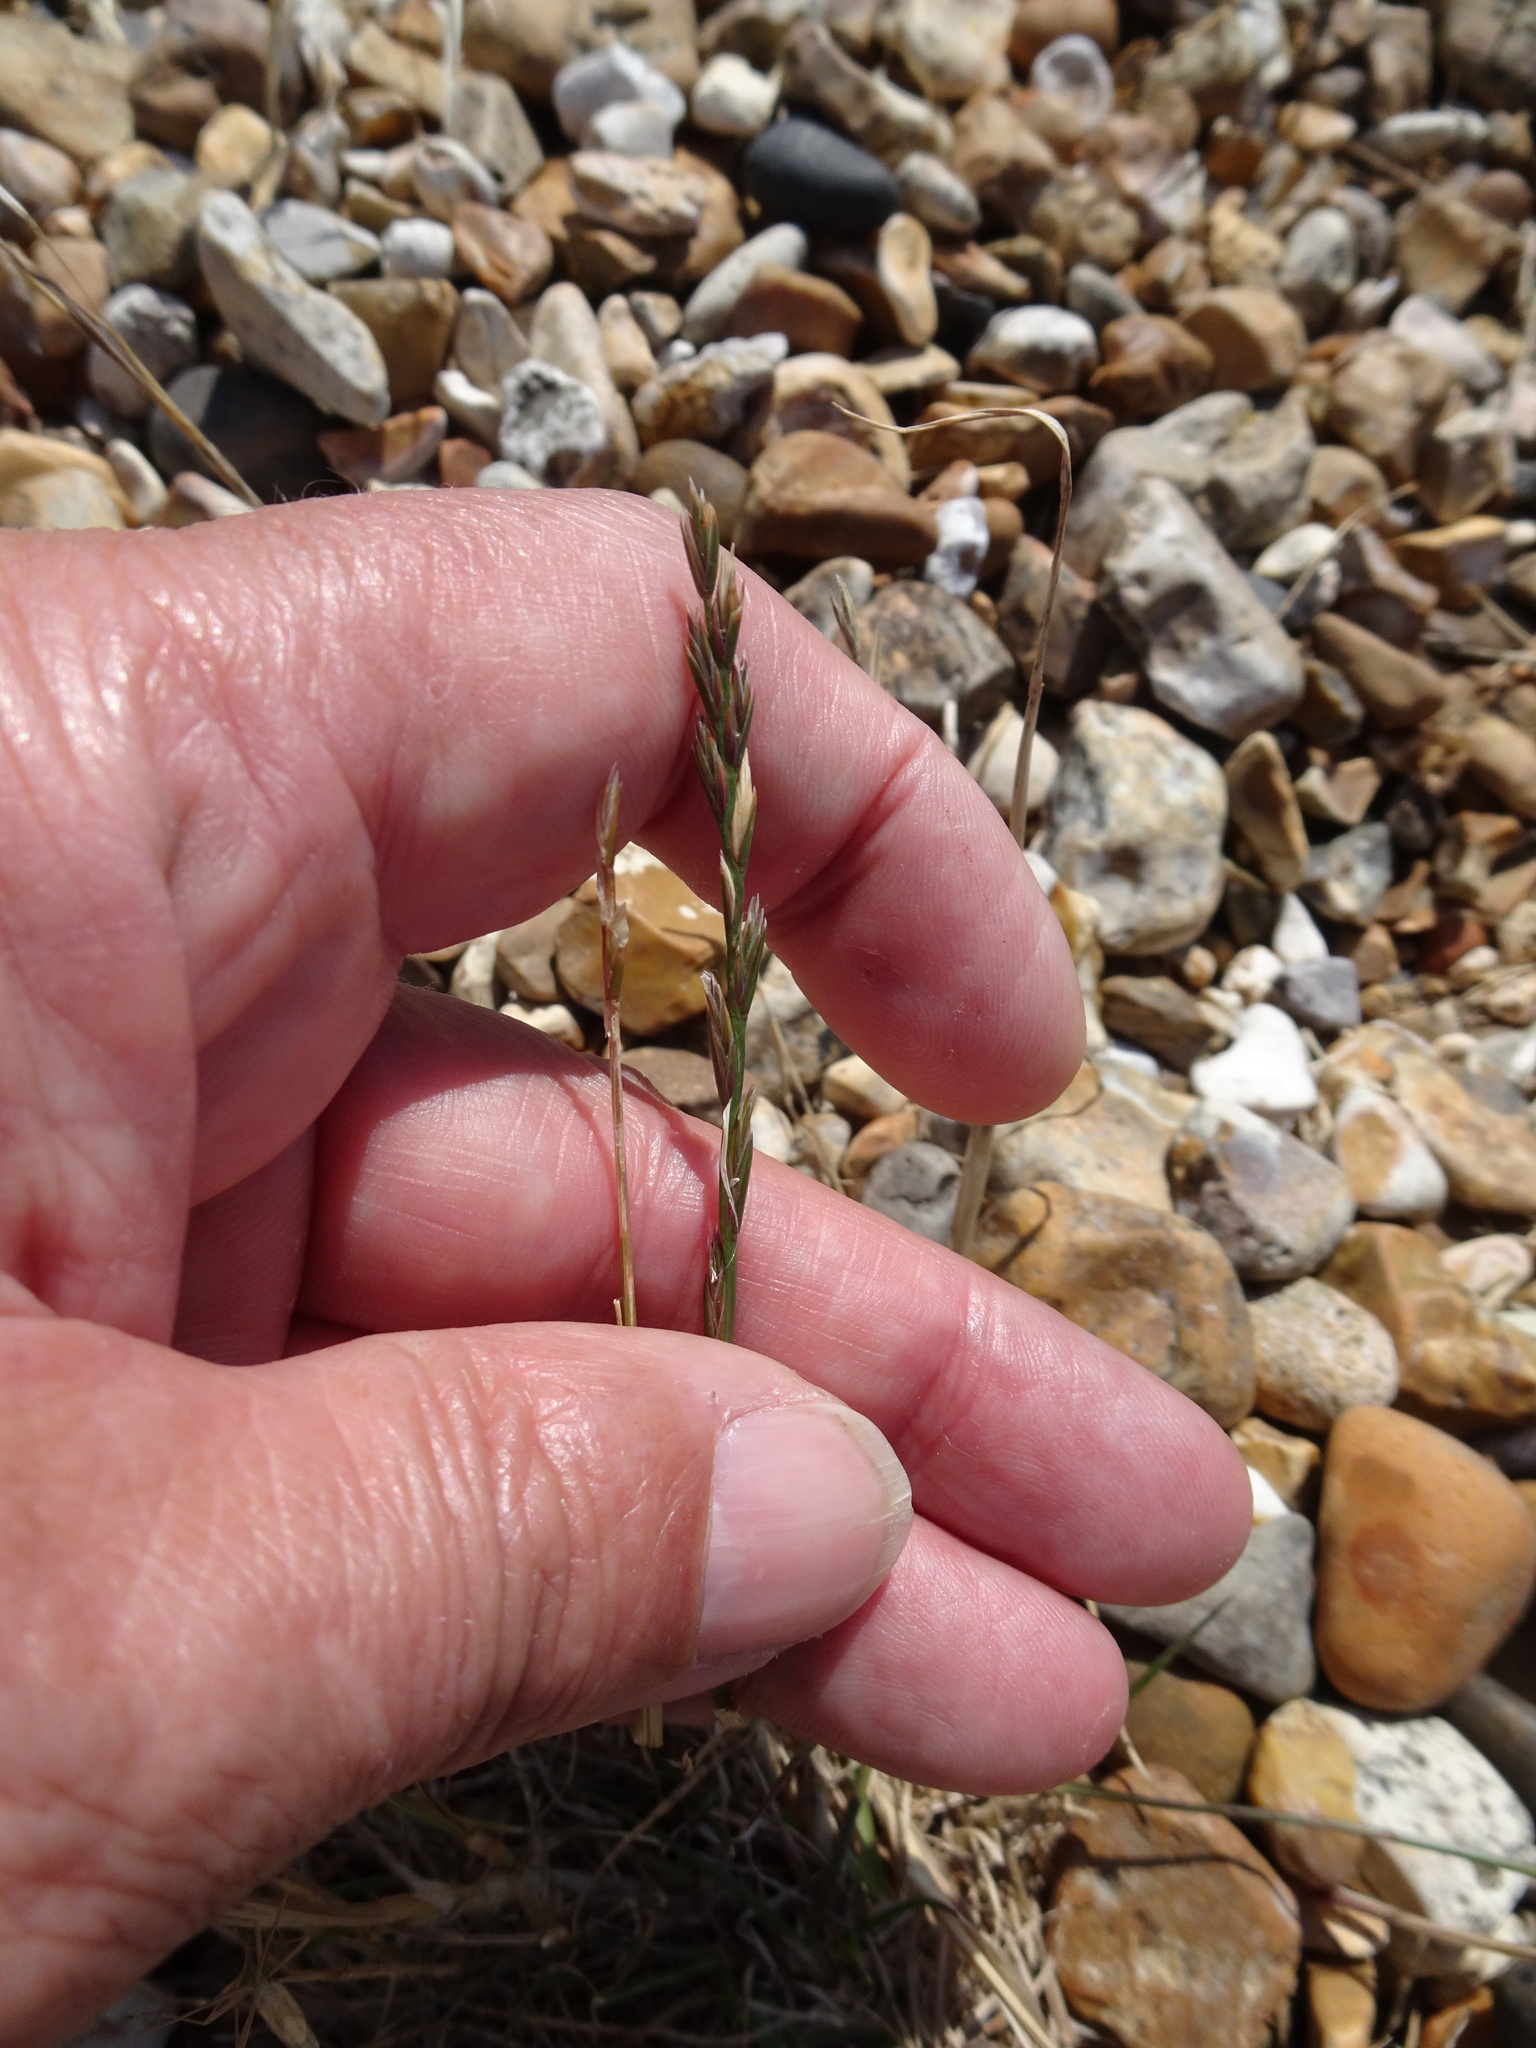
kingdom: Plantae
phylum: Tracheophyta
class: Liliopsida
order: Poales
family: Poaceae
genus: Lolium
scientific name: Lolium perenne
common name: Perennial ryegrass
